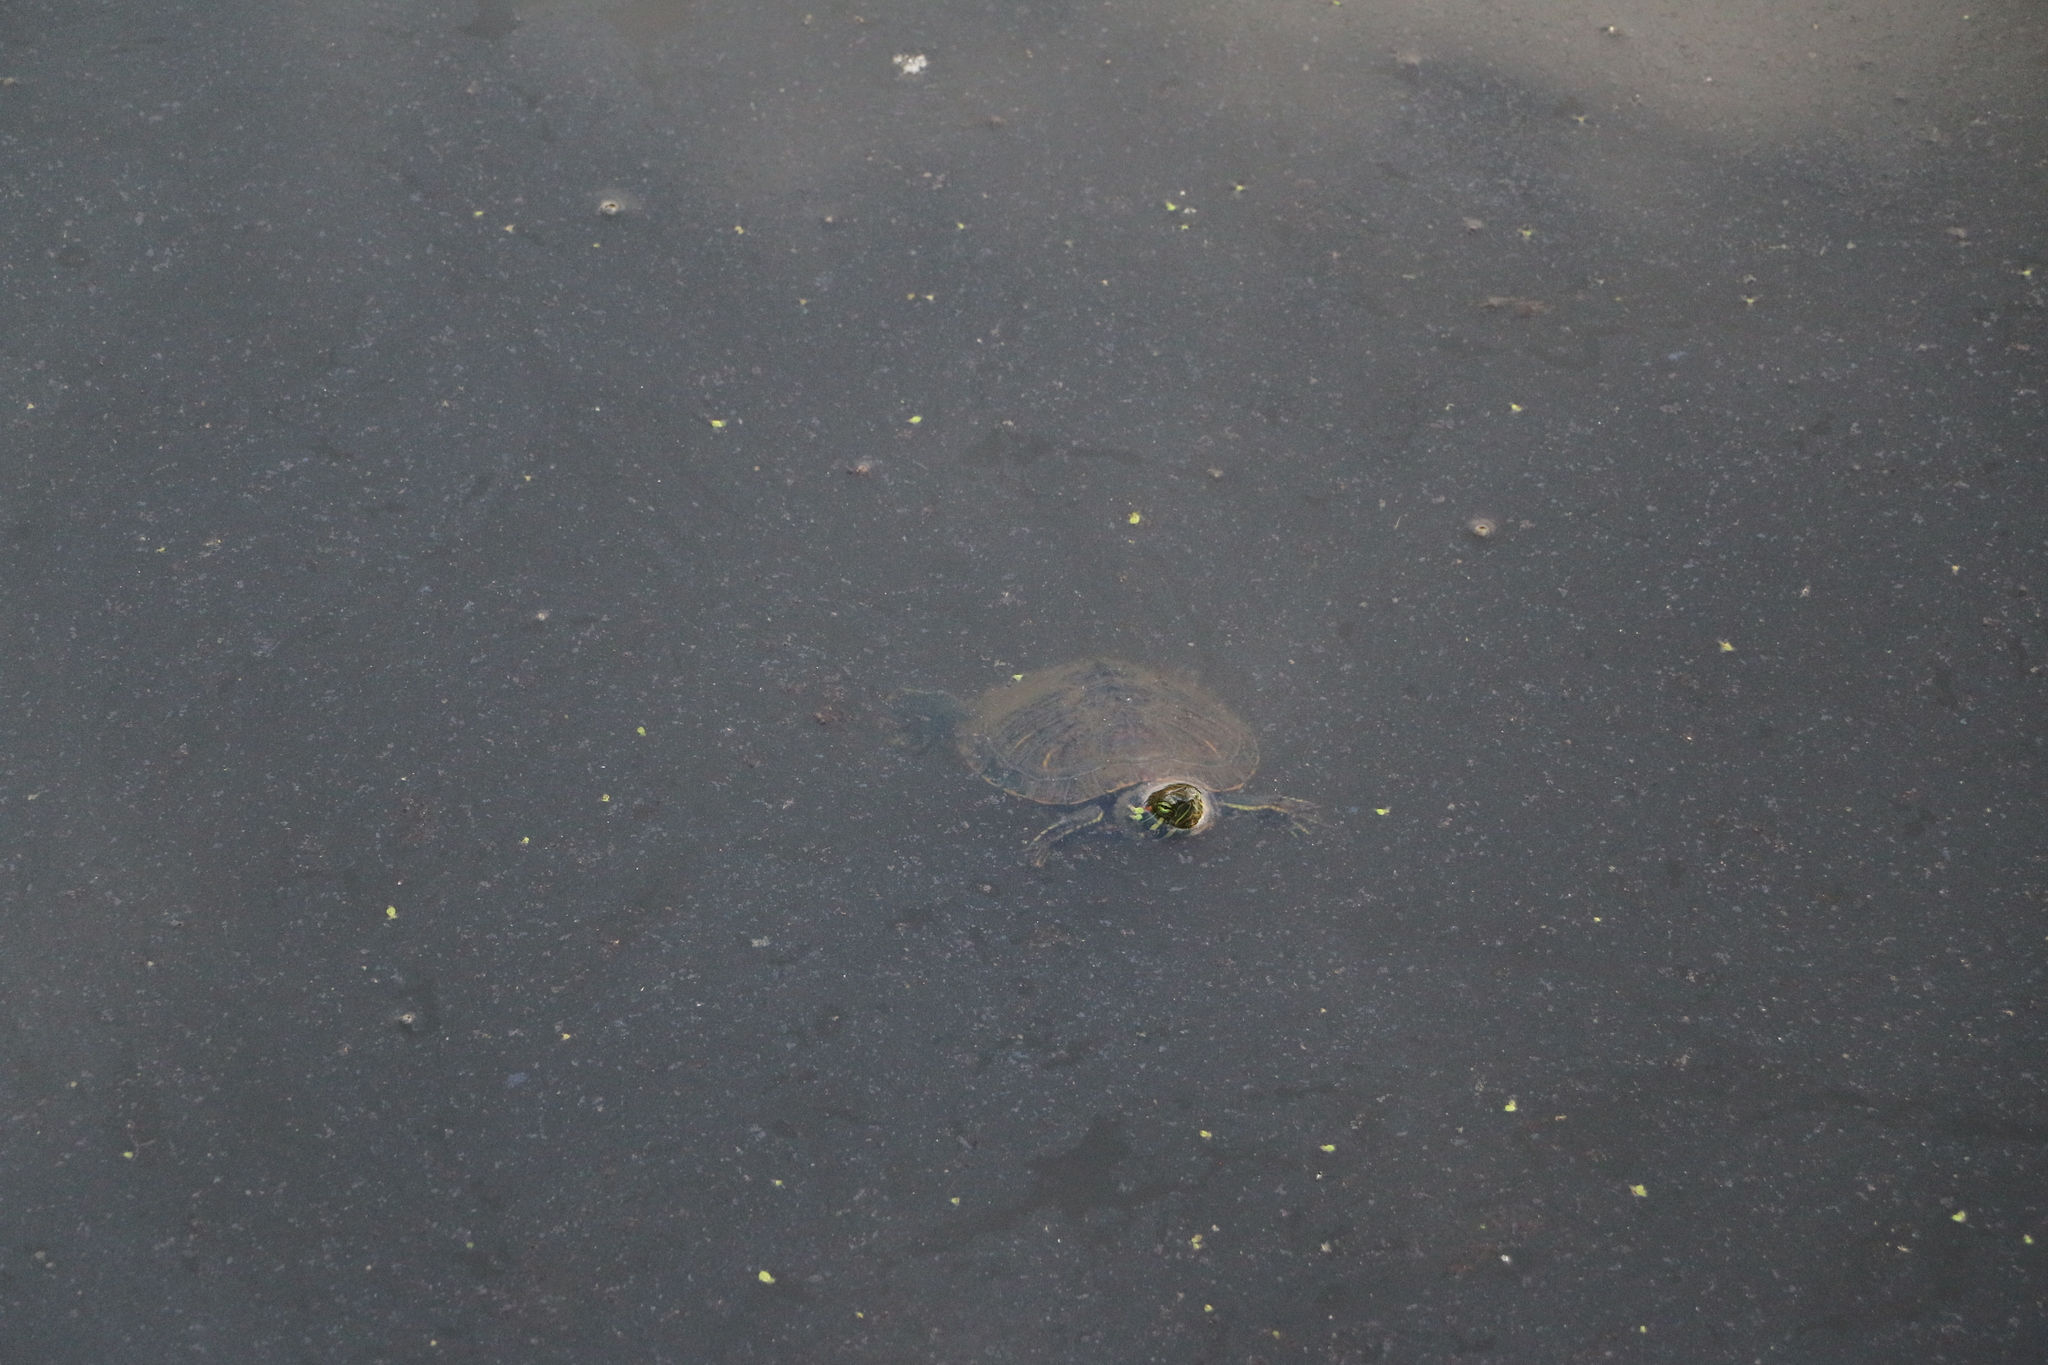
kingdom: Animalia
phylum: Chordata
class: Testudines
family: Emydidae
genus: Trachemys
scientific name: Trachemys scripta
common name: Slider
